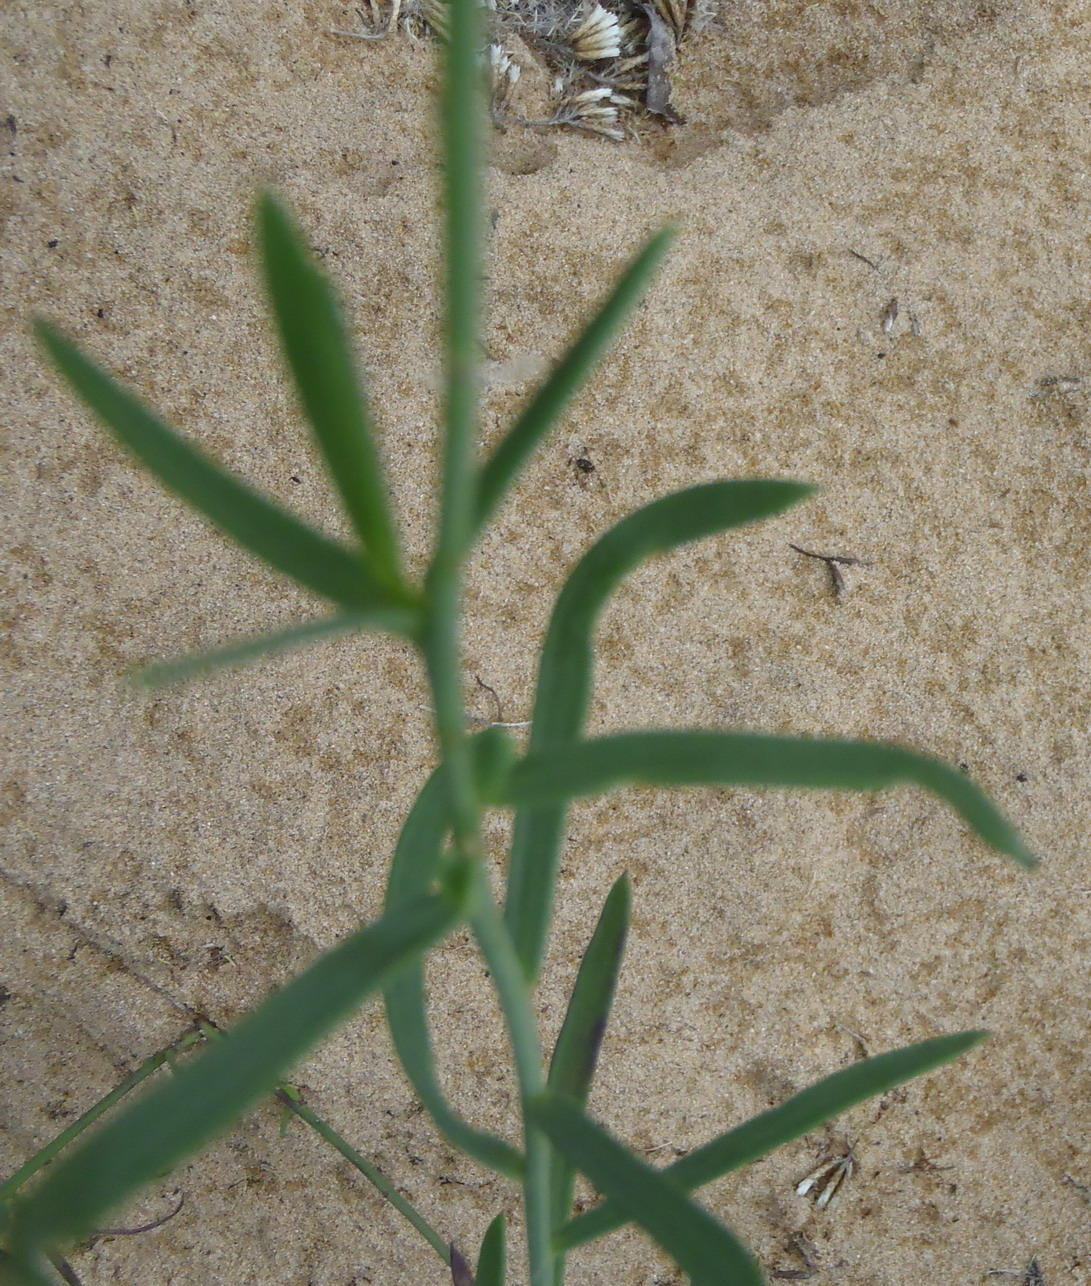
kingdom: Plantae
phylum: Tracheophyta
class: Magnoliopsida
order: Brassicales
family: Brassicaceae
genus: Heliophila
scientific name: Heliophila linearis
